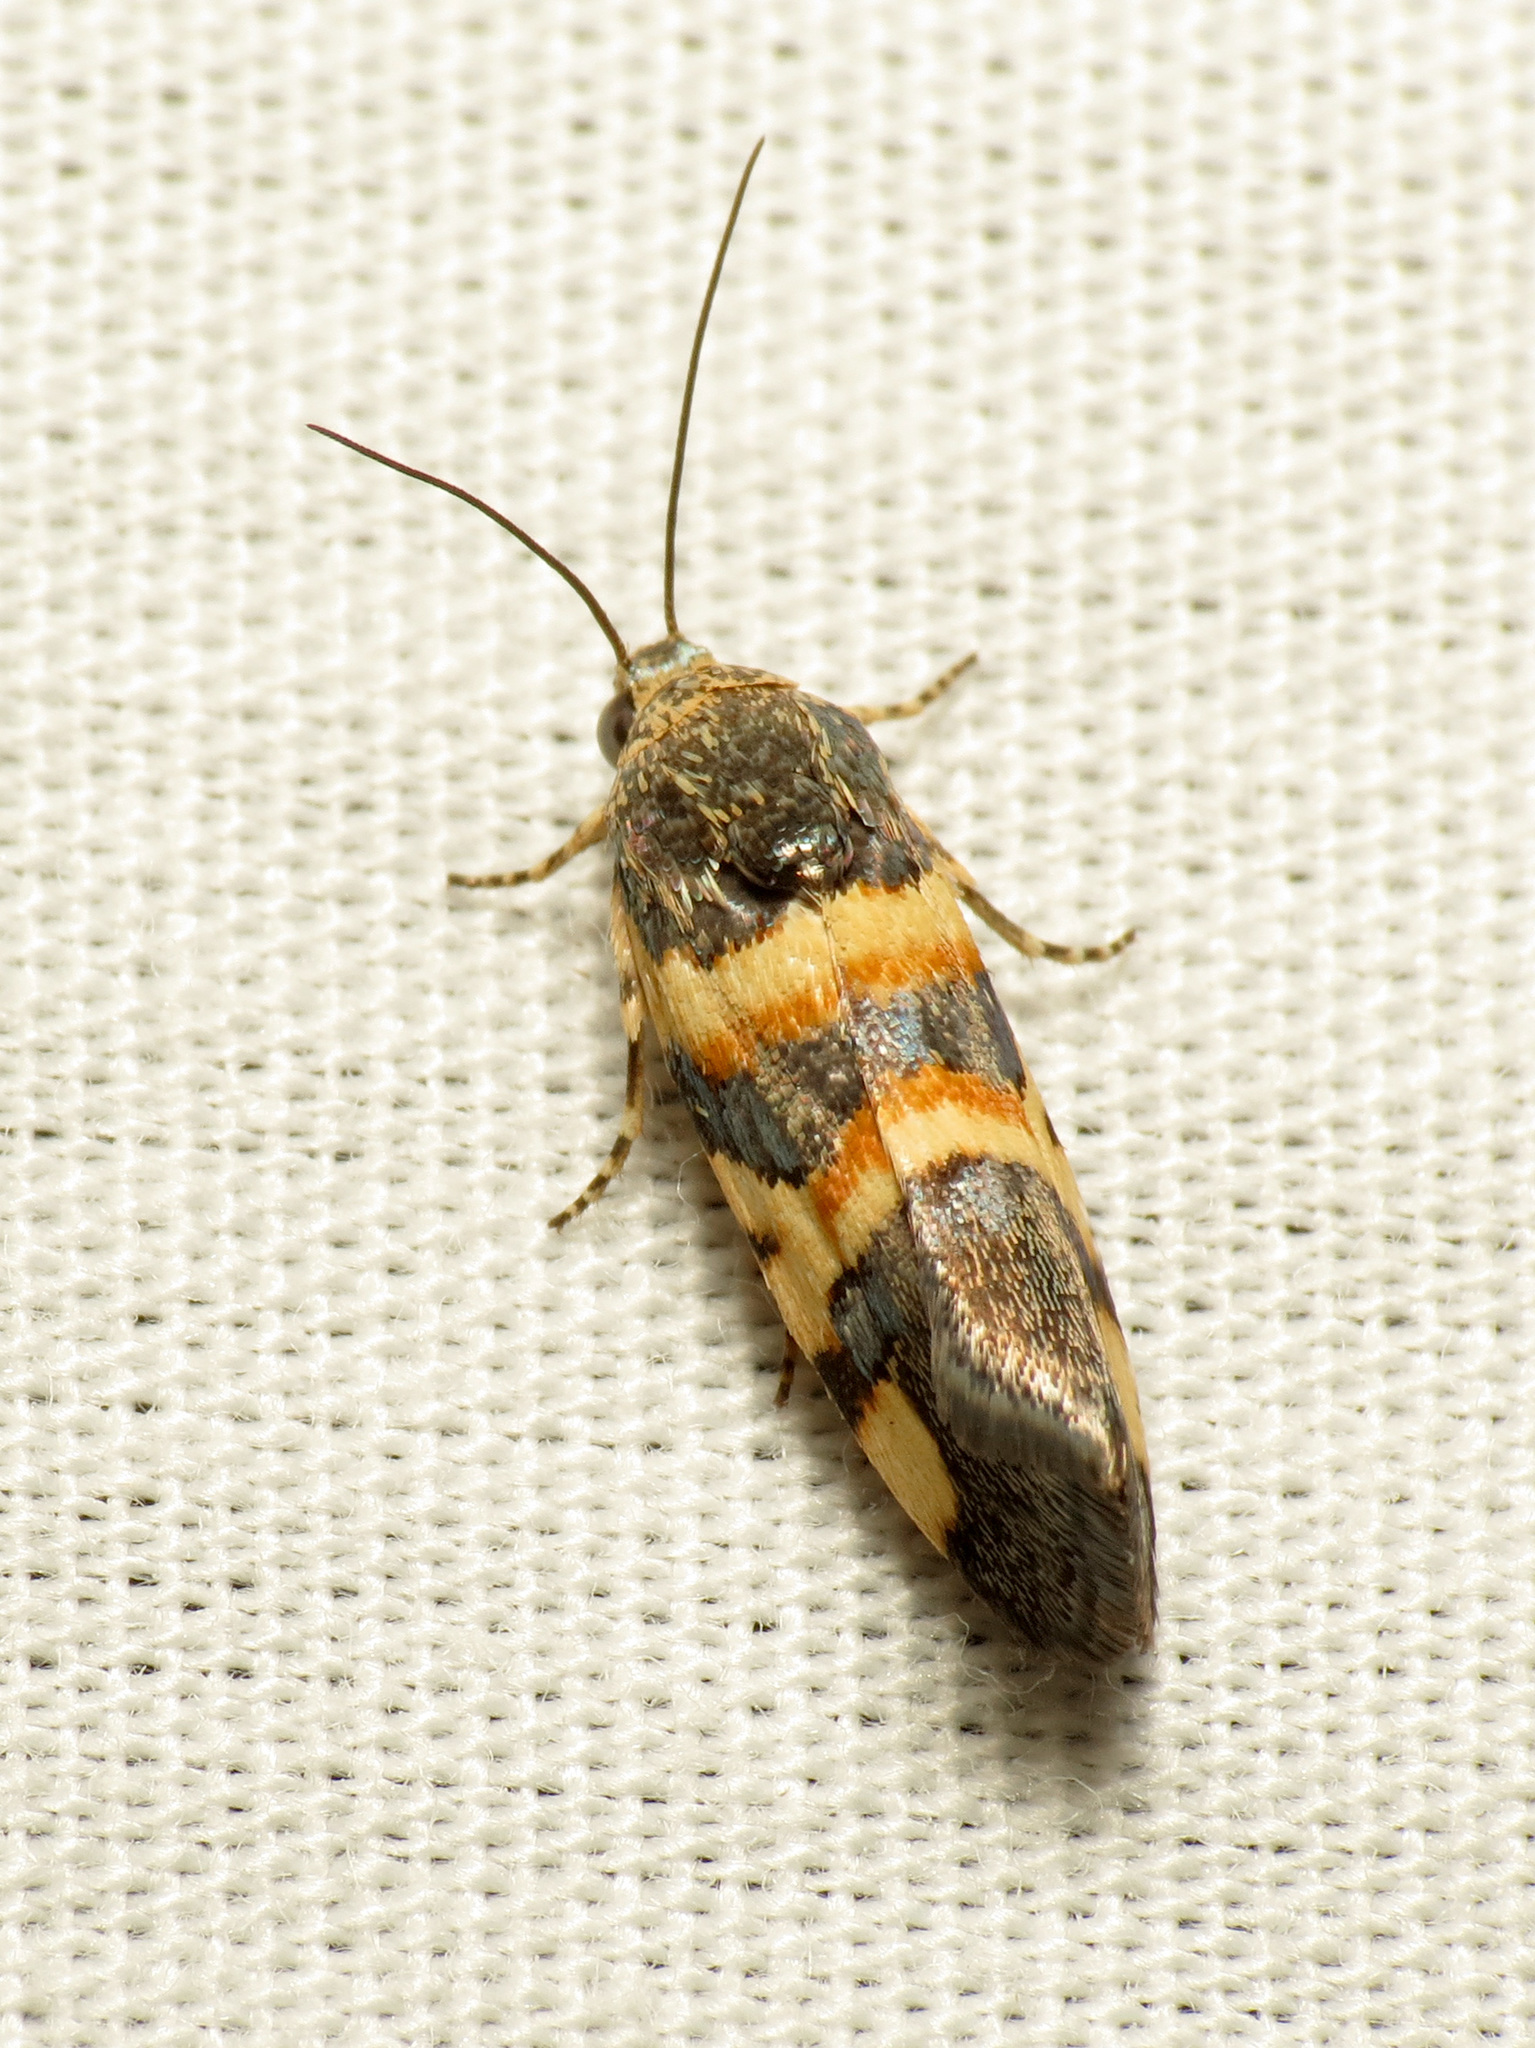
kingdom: Animalia
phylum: Arthropoda
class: Insecta
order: Lepidoptera
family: Noctuidae
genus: Spragueia
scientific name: Spragueia funeralis
